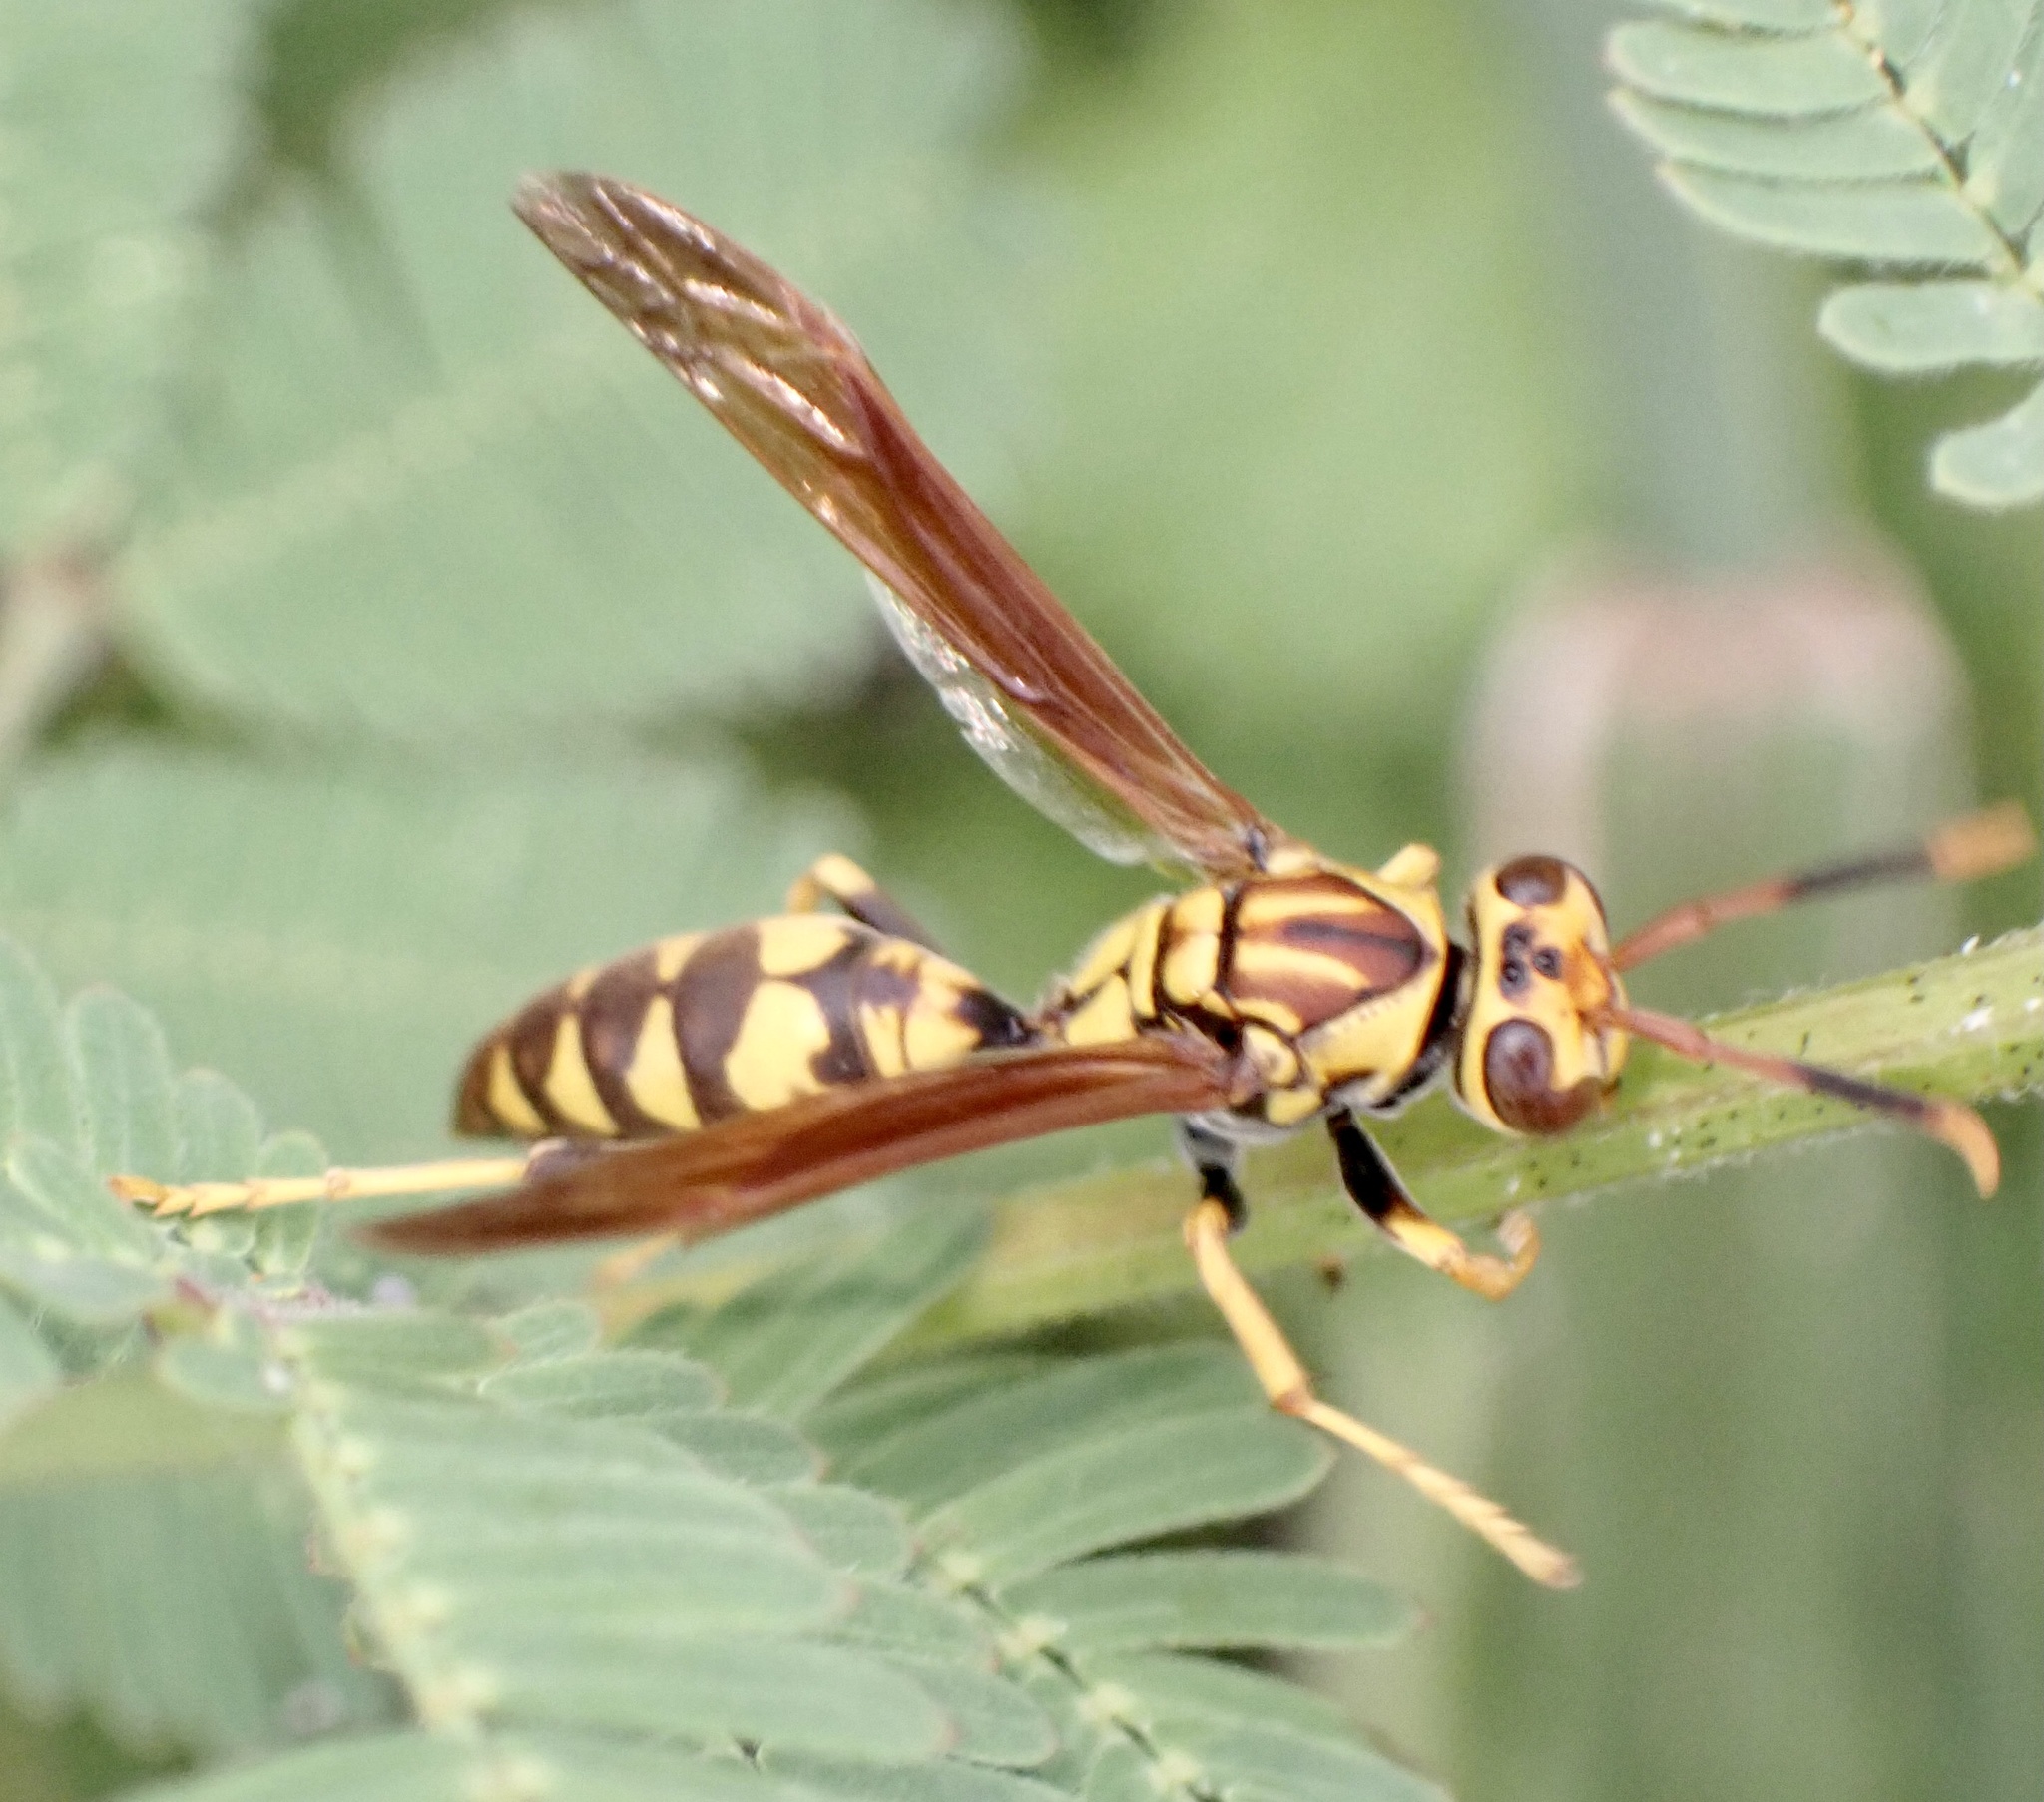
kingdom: Animalia
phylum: Arthropoda
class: Insecta
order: Hymenoptera
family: Eumenidae
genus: Polistes
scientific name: Polistes myersi
